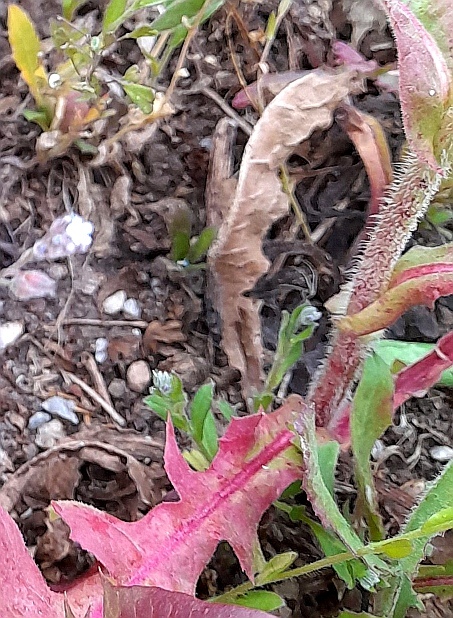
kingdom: Plantae
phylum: Tracheophyta
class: Magnoliopsida
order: Asterales
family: Asteraceae
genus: Lactuca
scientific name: Lactuca serriola
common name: Prickly lettuce
